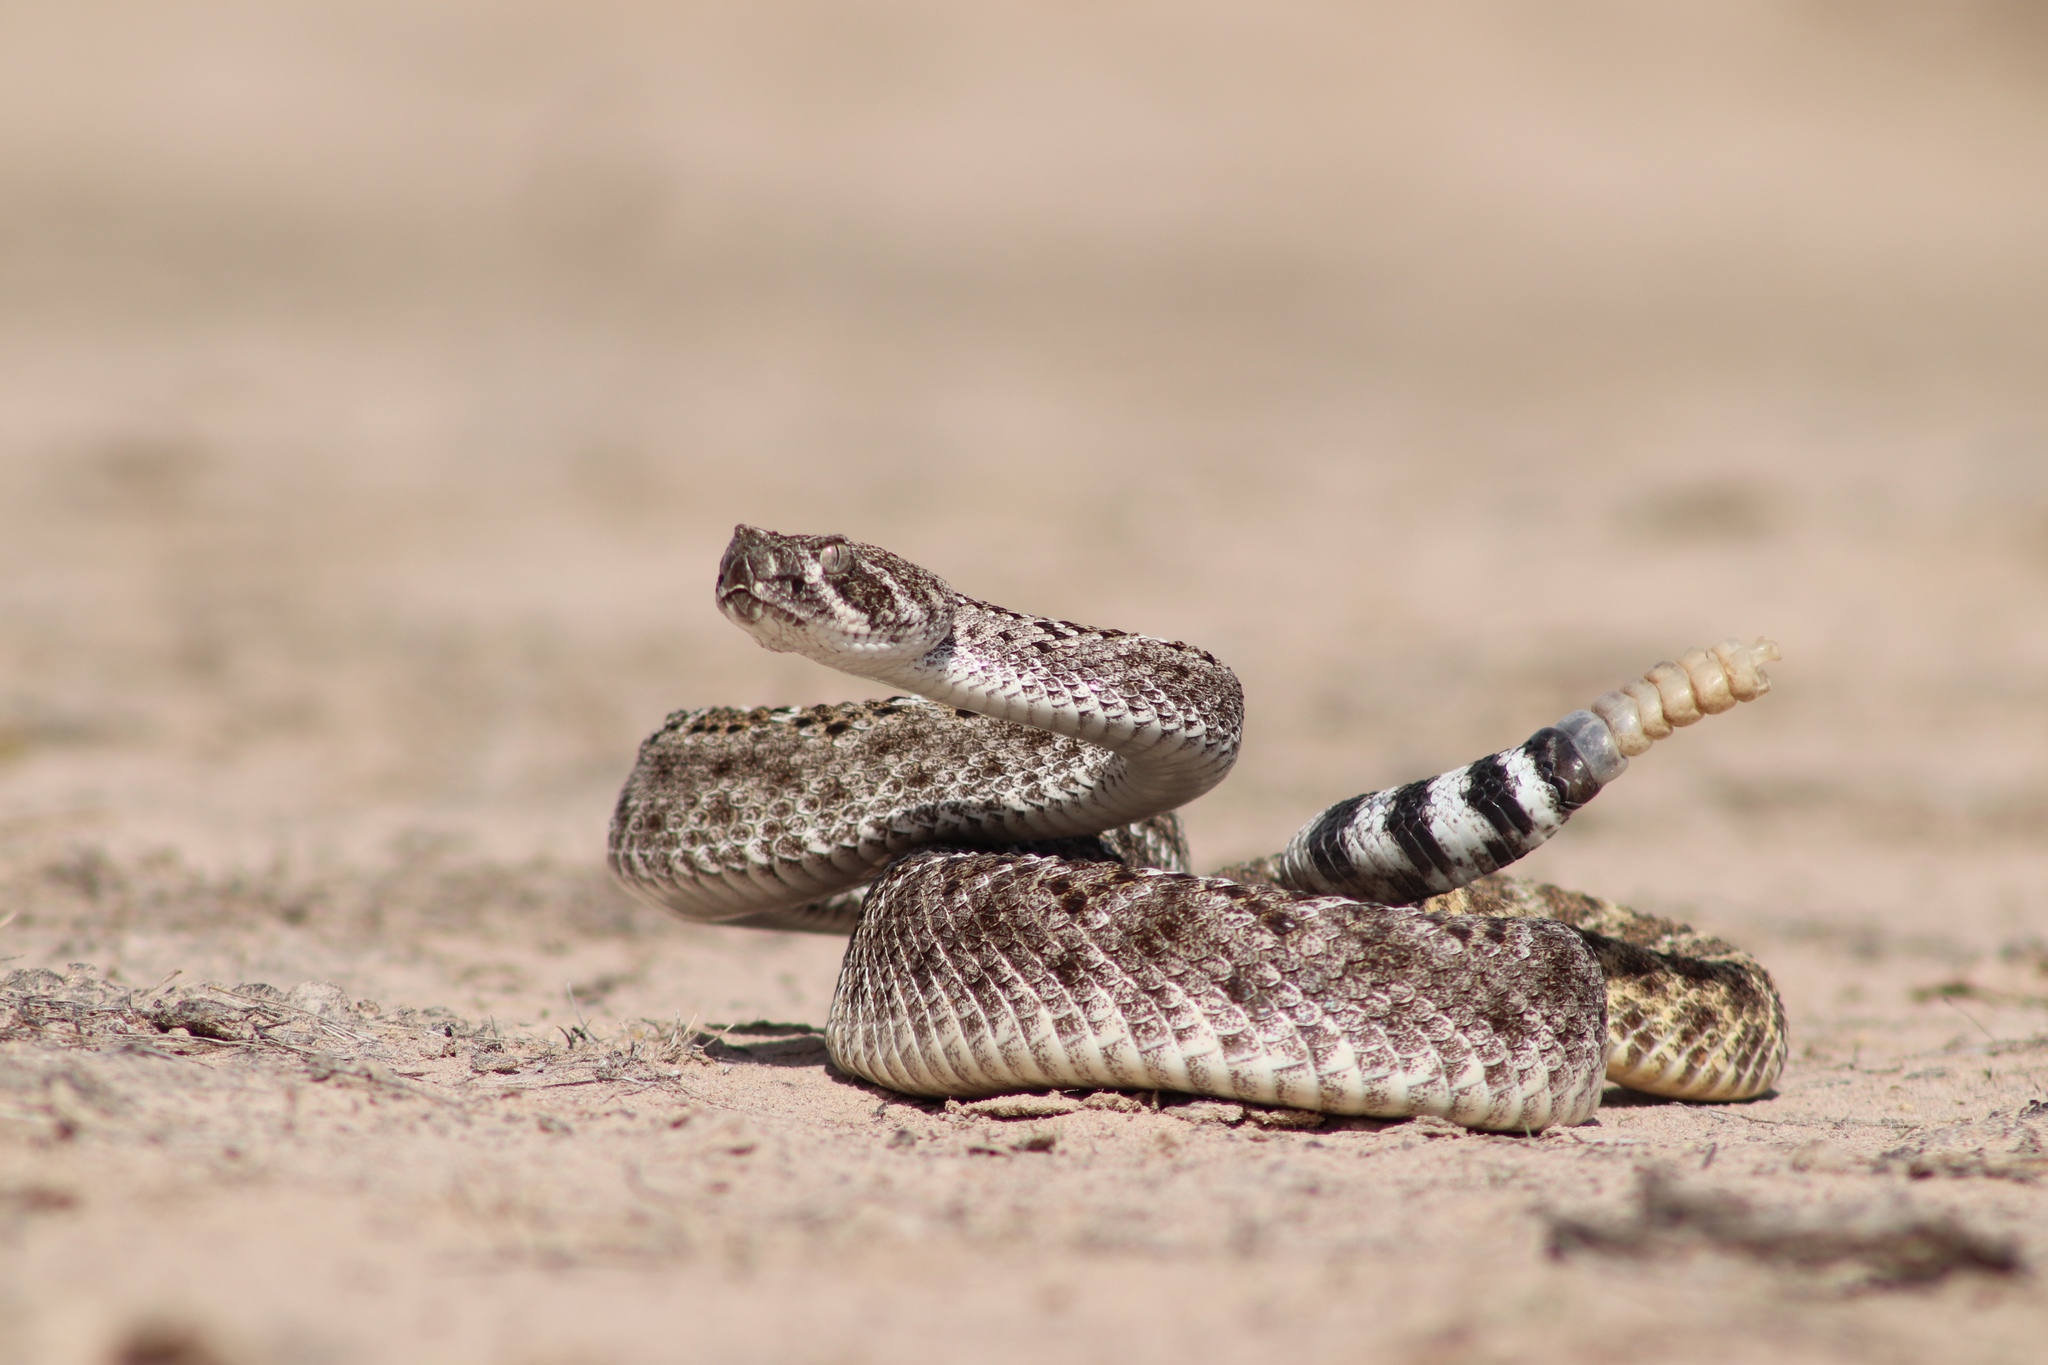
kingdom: Animalia
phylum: Chordata
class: Squamata
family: Viperidae
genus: Crotalus
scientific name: Crotalus atrox
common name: Western diamond-backed rattlesnake
